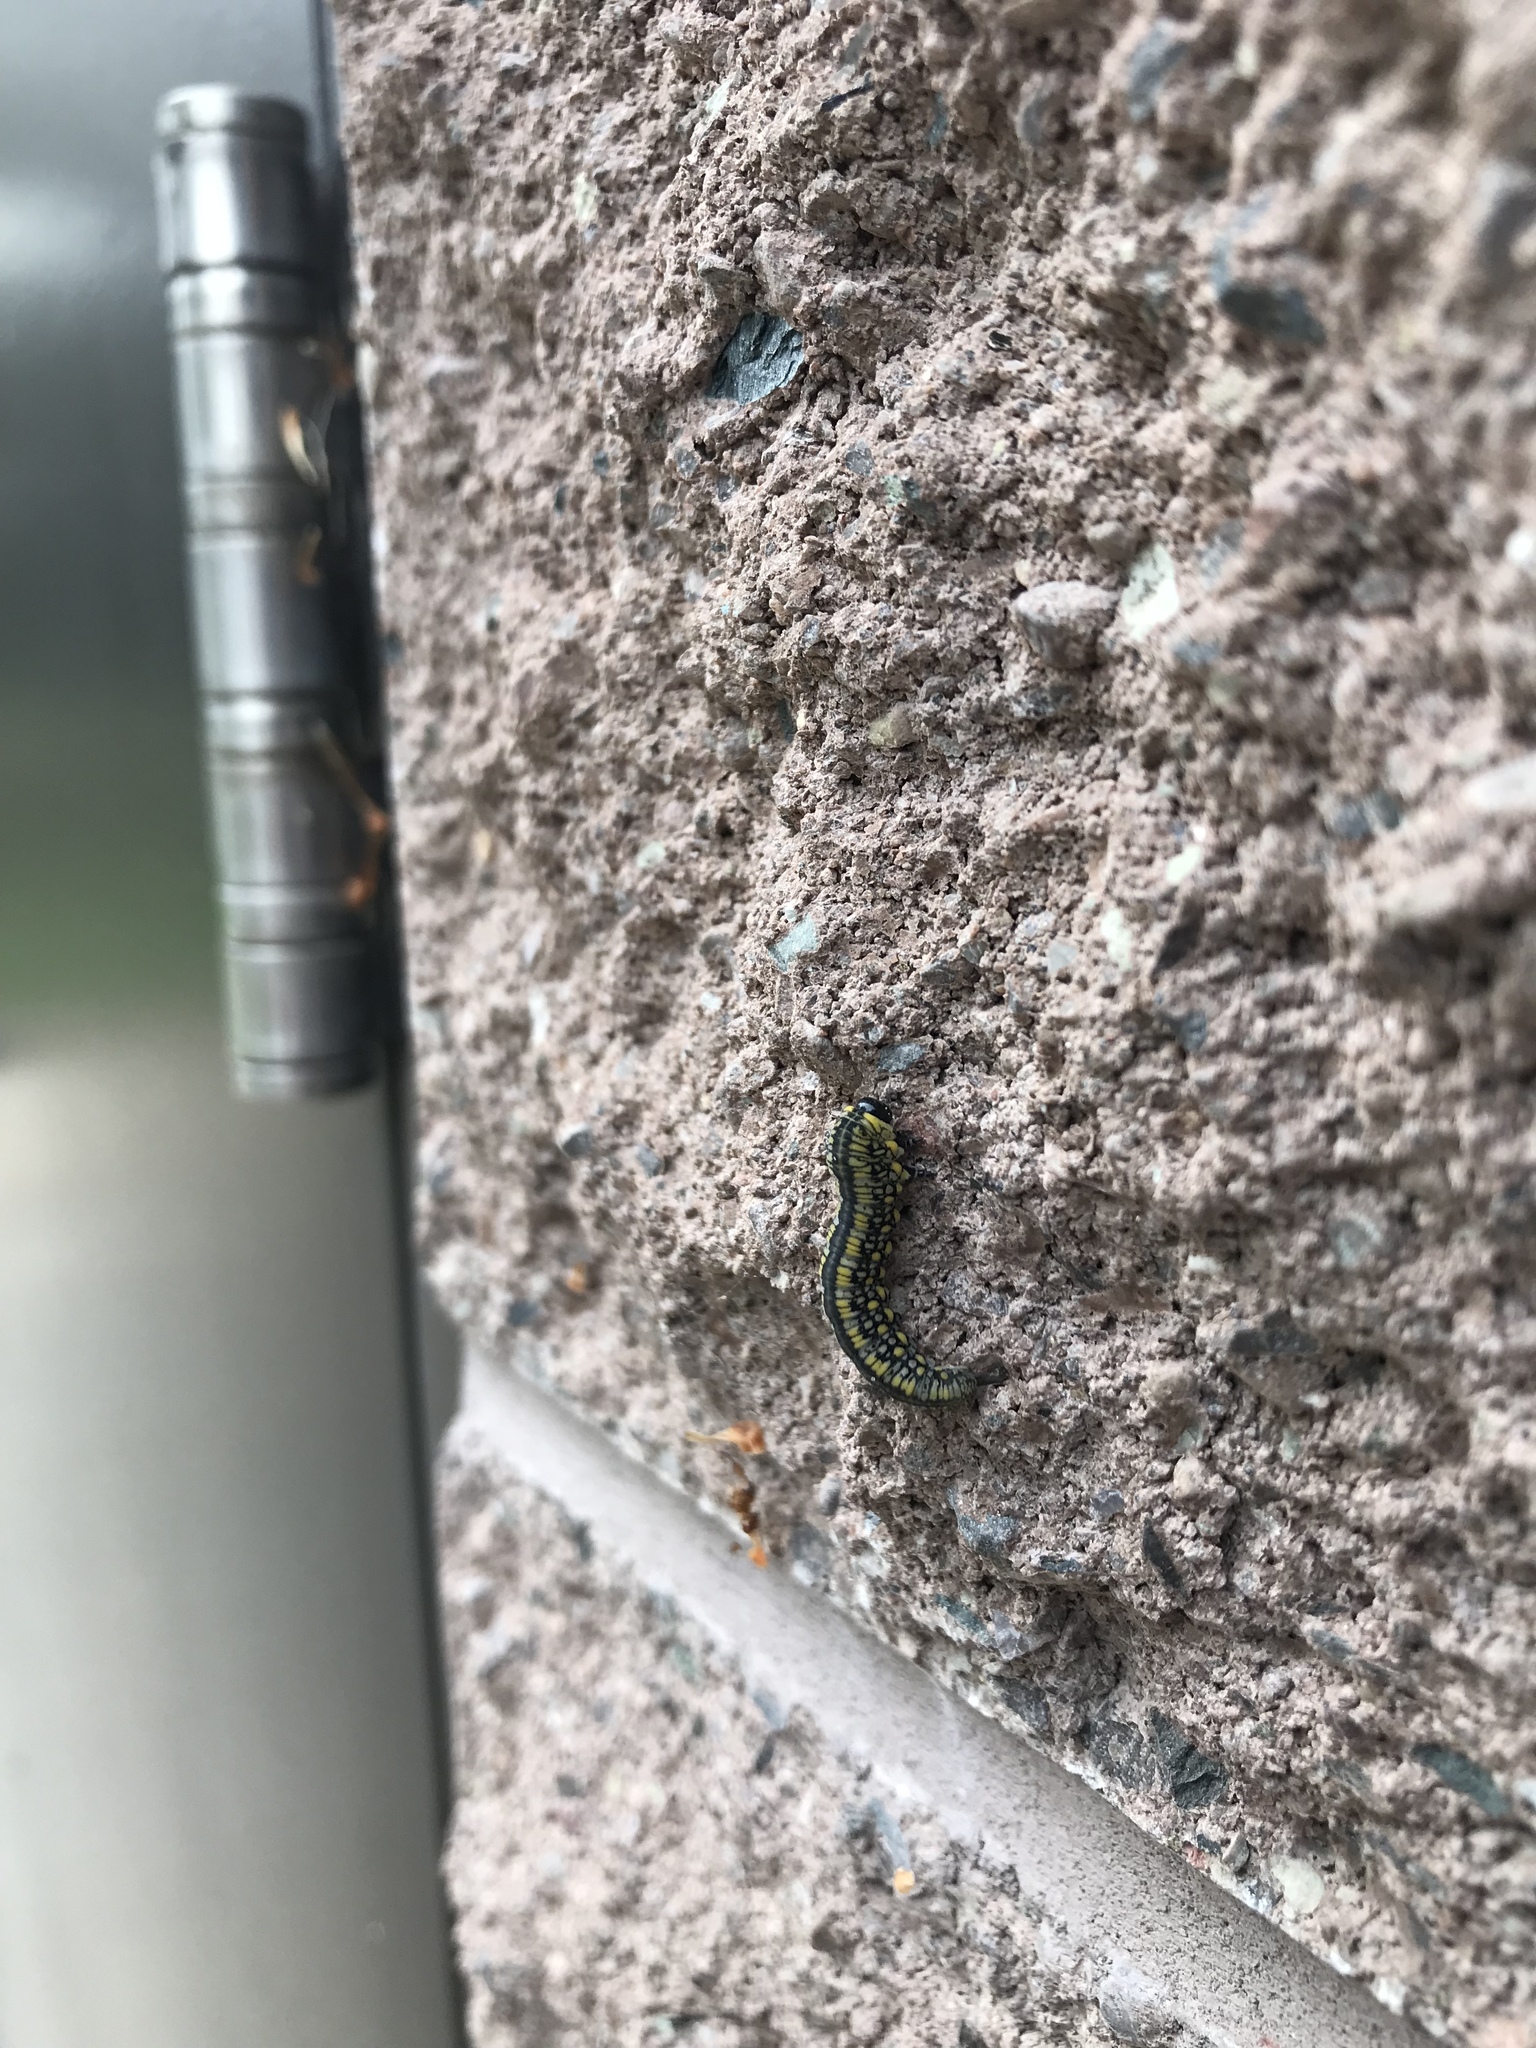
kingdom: Animalia
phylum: Arthropoda
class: Insecta
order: Hymenoptera
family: Diprionidae
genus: Diprion
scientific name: Diprion similis
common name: Pine sawfly
